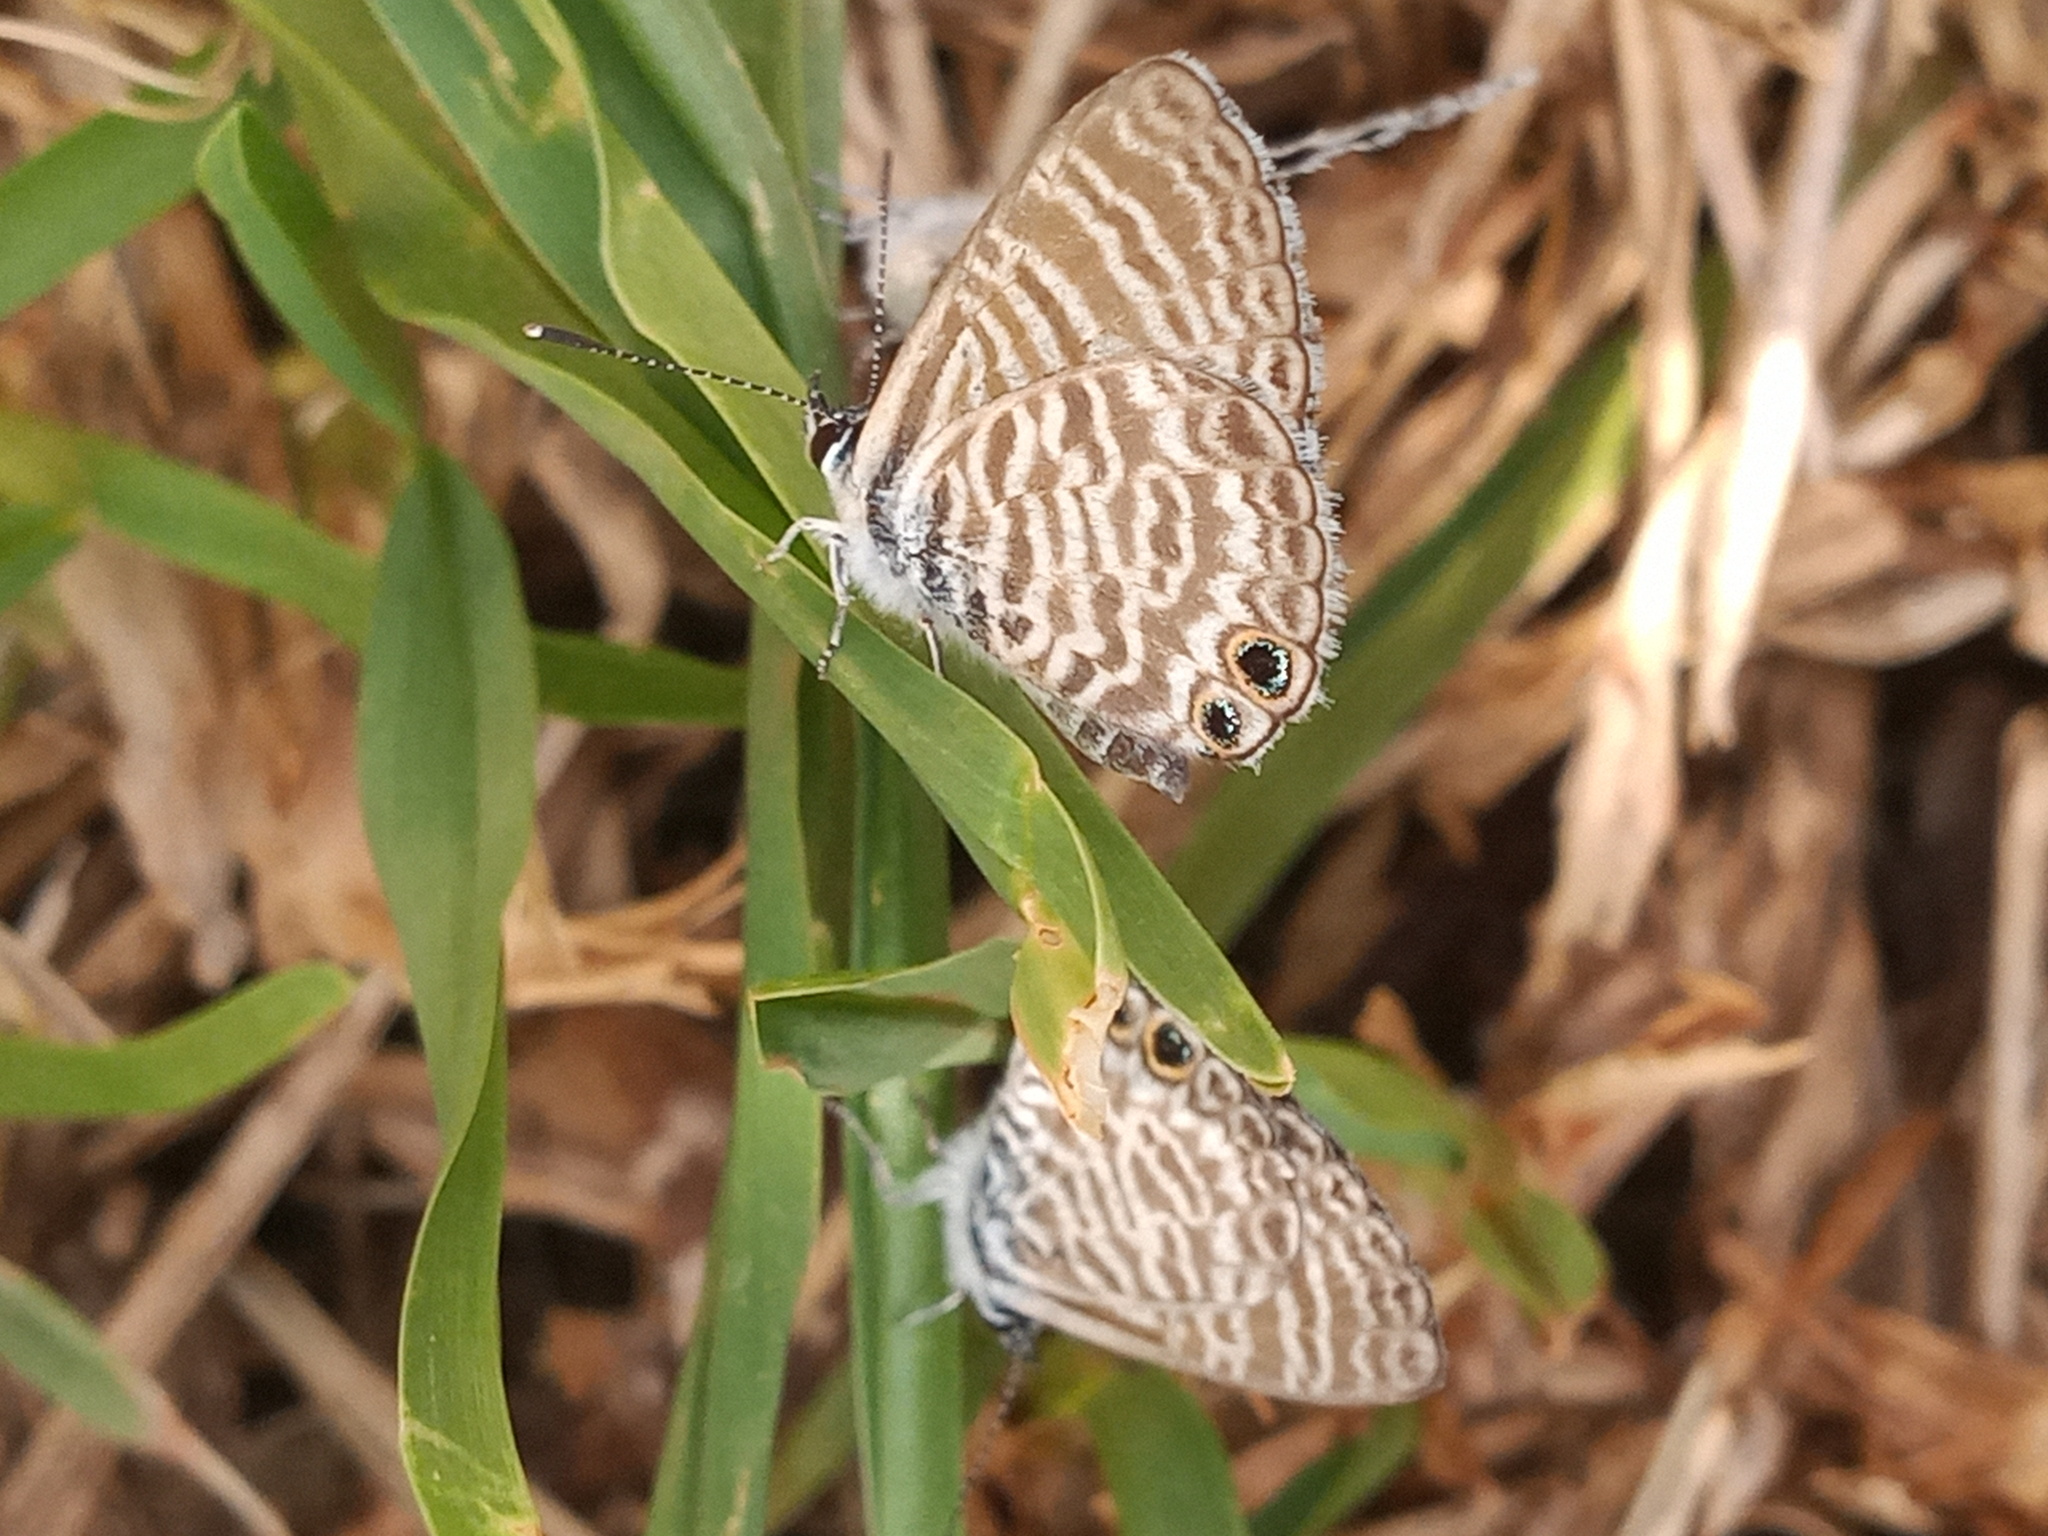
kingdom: Animalia
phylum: Arthropoda
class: Insecta
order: Lepidoptera
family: Lycaenidae
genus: Leptotes
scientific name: Leptotes marina
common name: Marine blue
